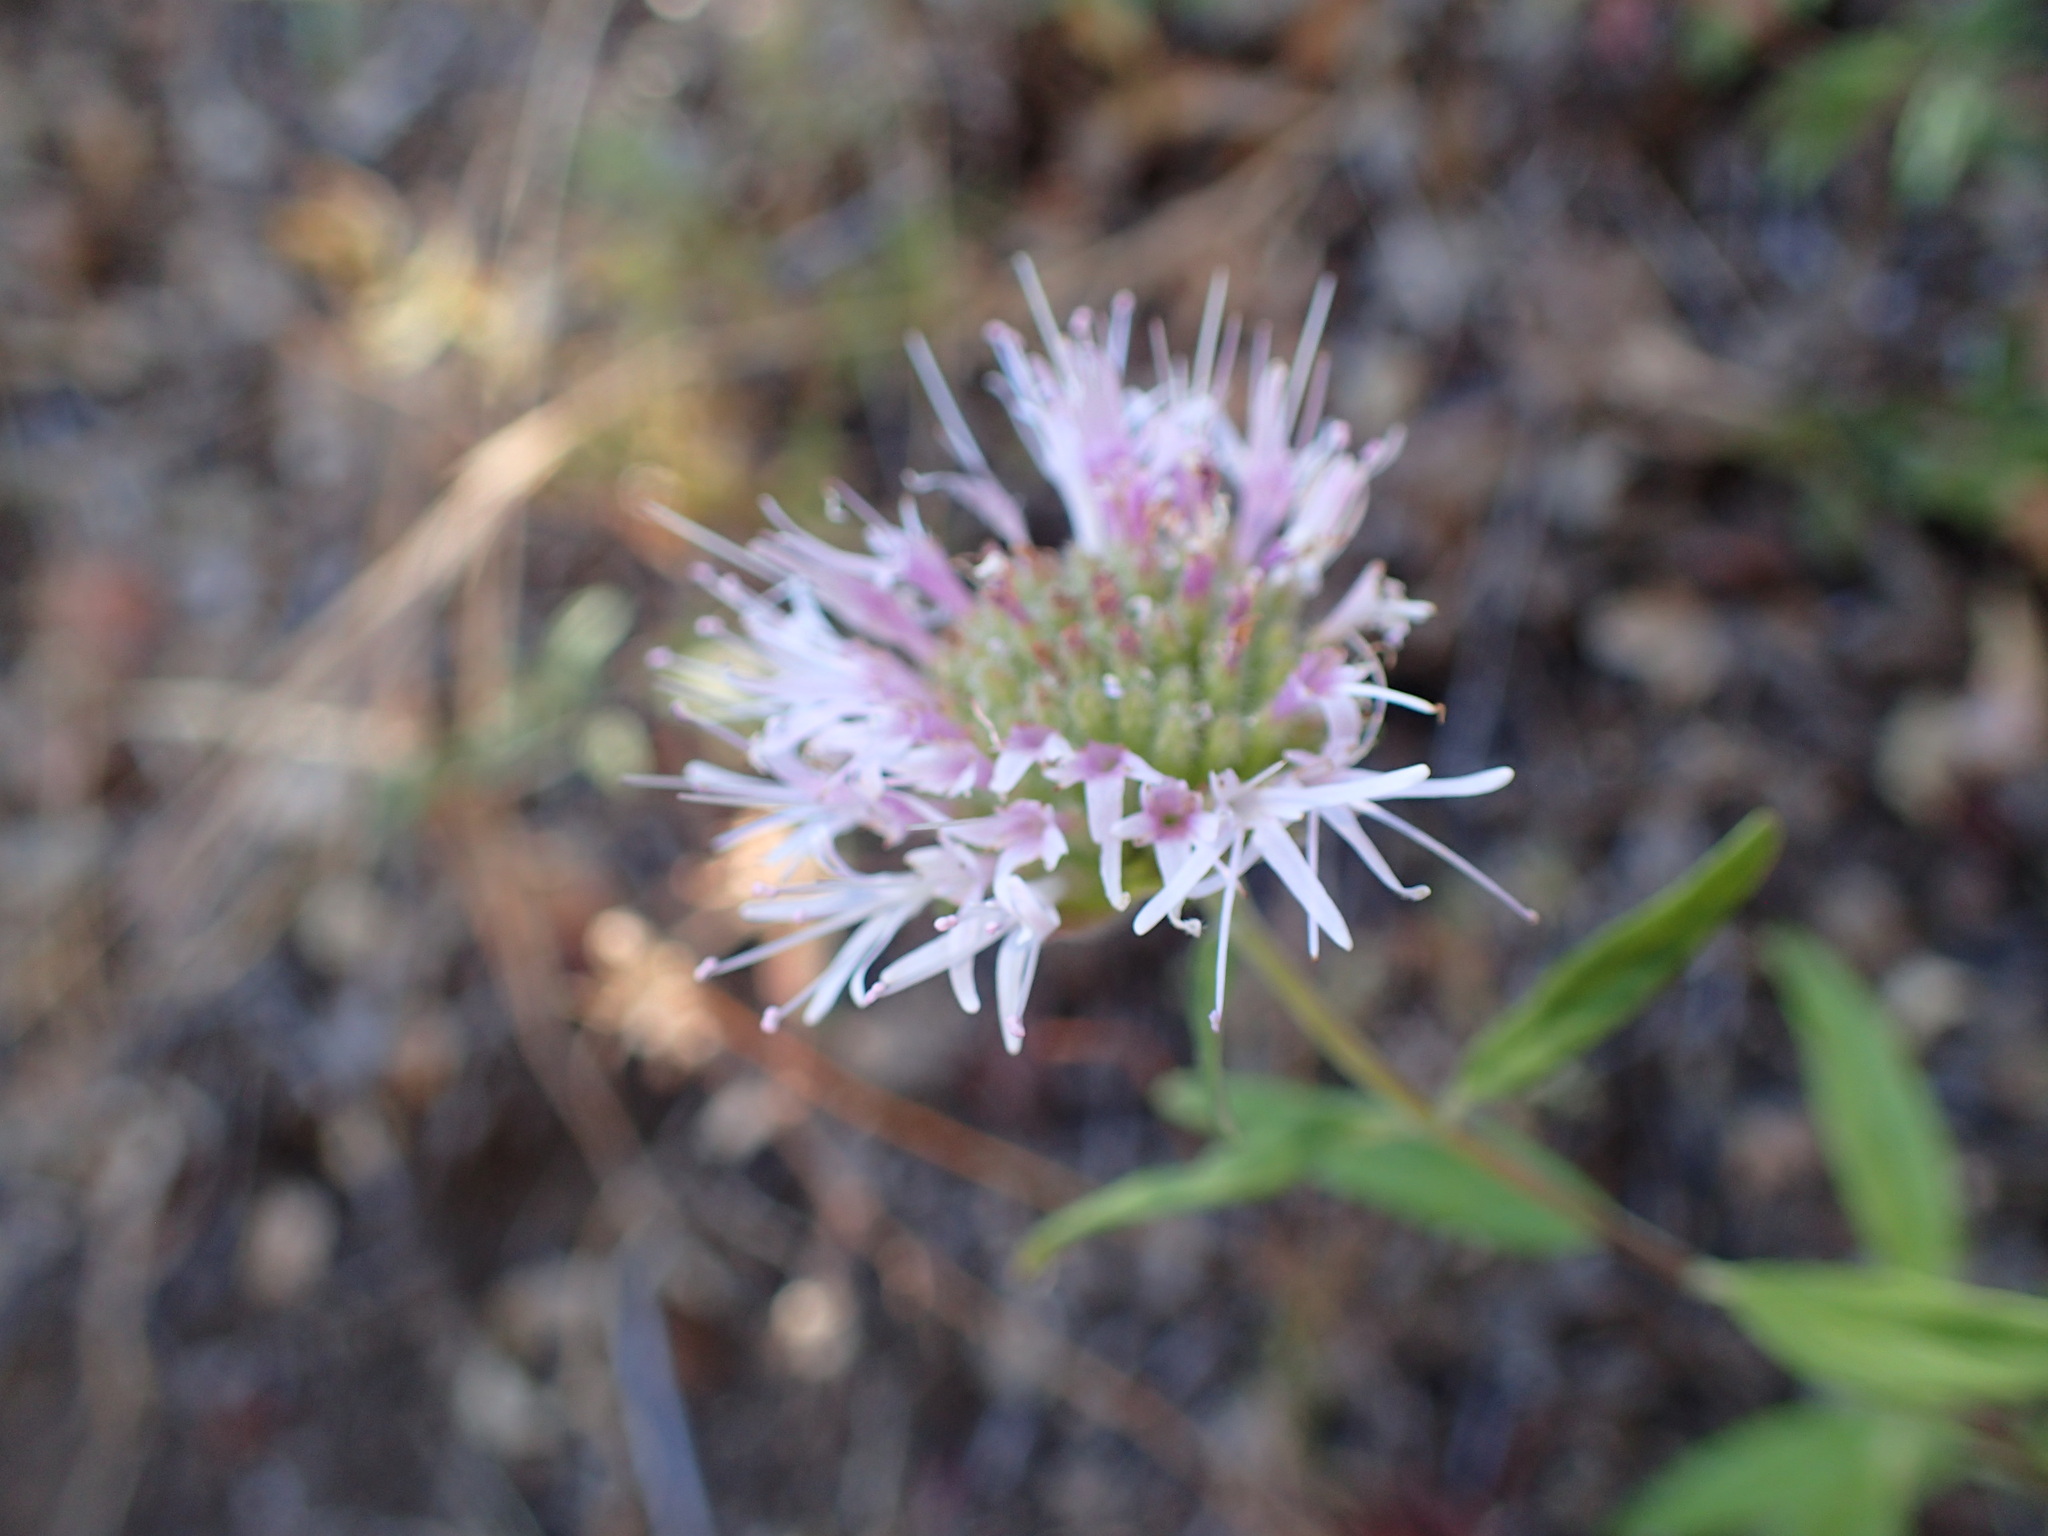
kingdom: Plantae
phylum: Tracheophyta
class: Magnoliopsida
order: Lamiales
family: Lamiaceae
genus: Monardella
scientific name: Monardella hypoleuca
